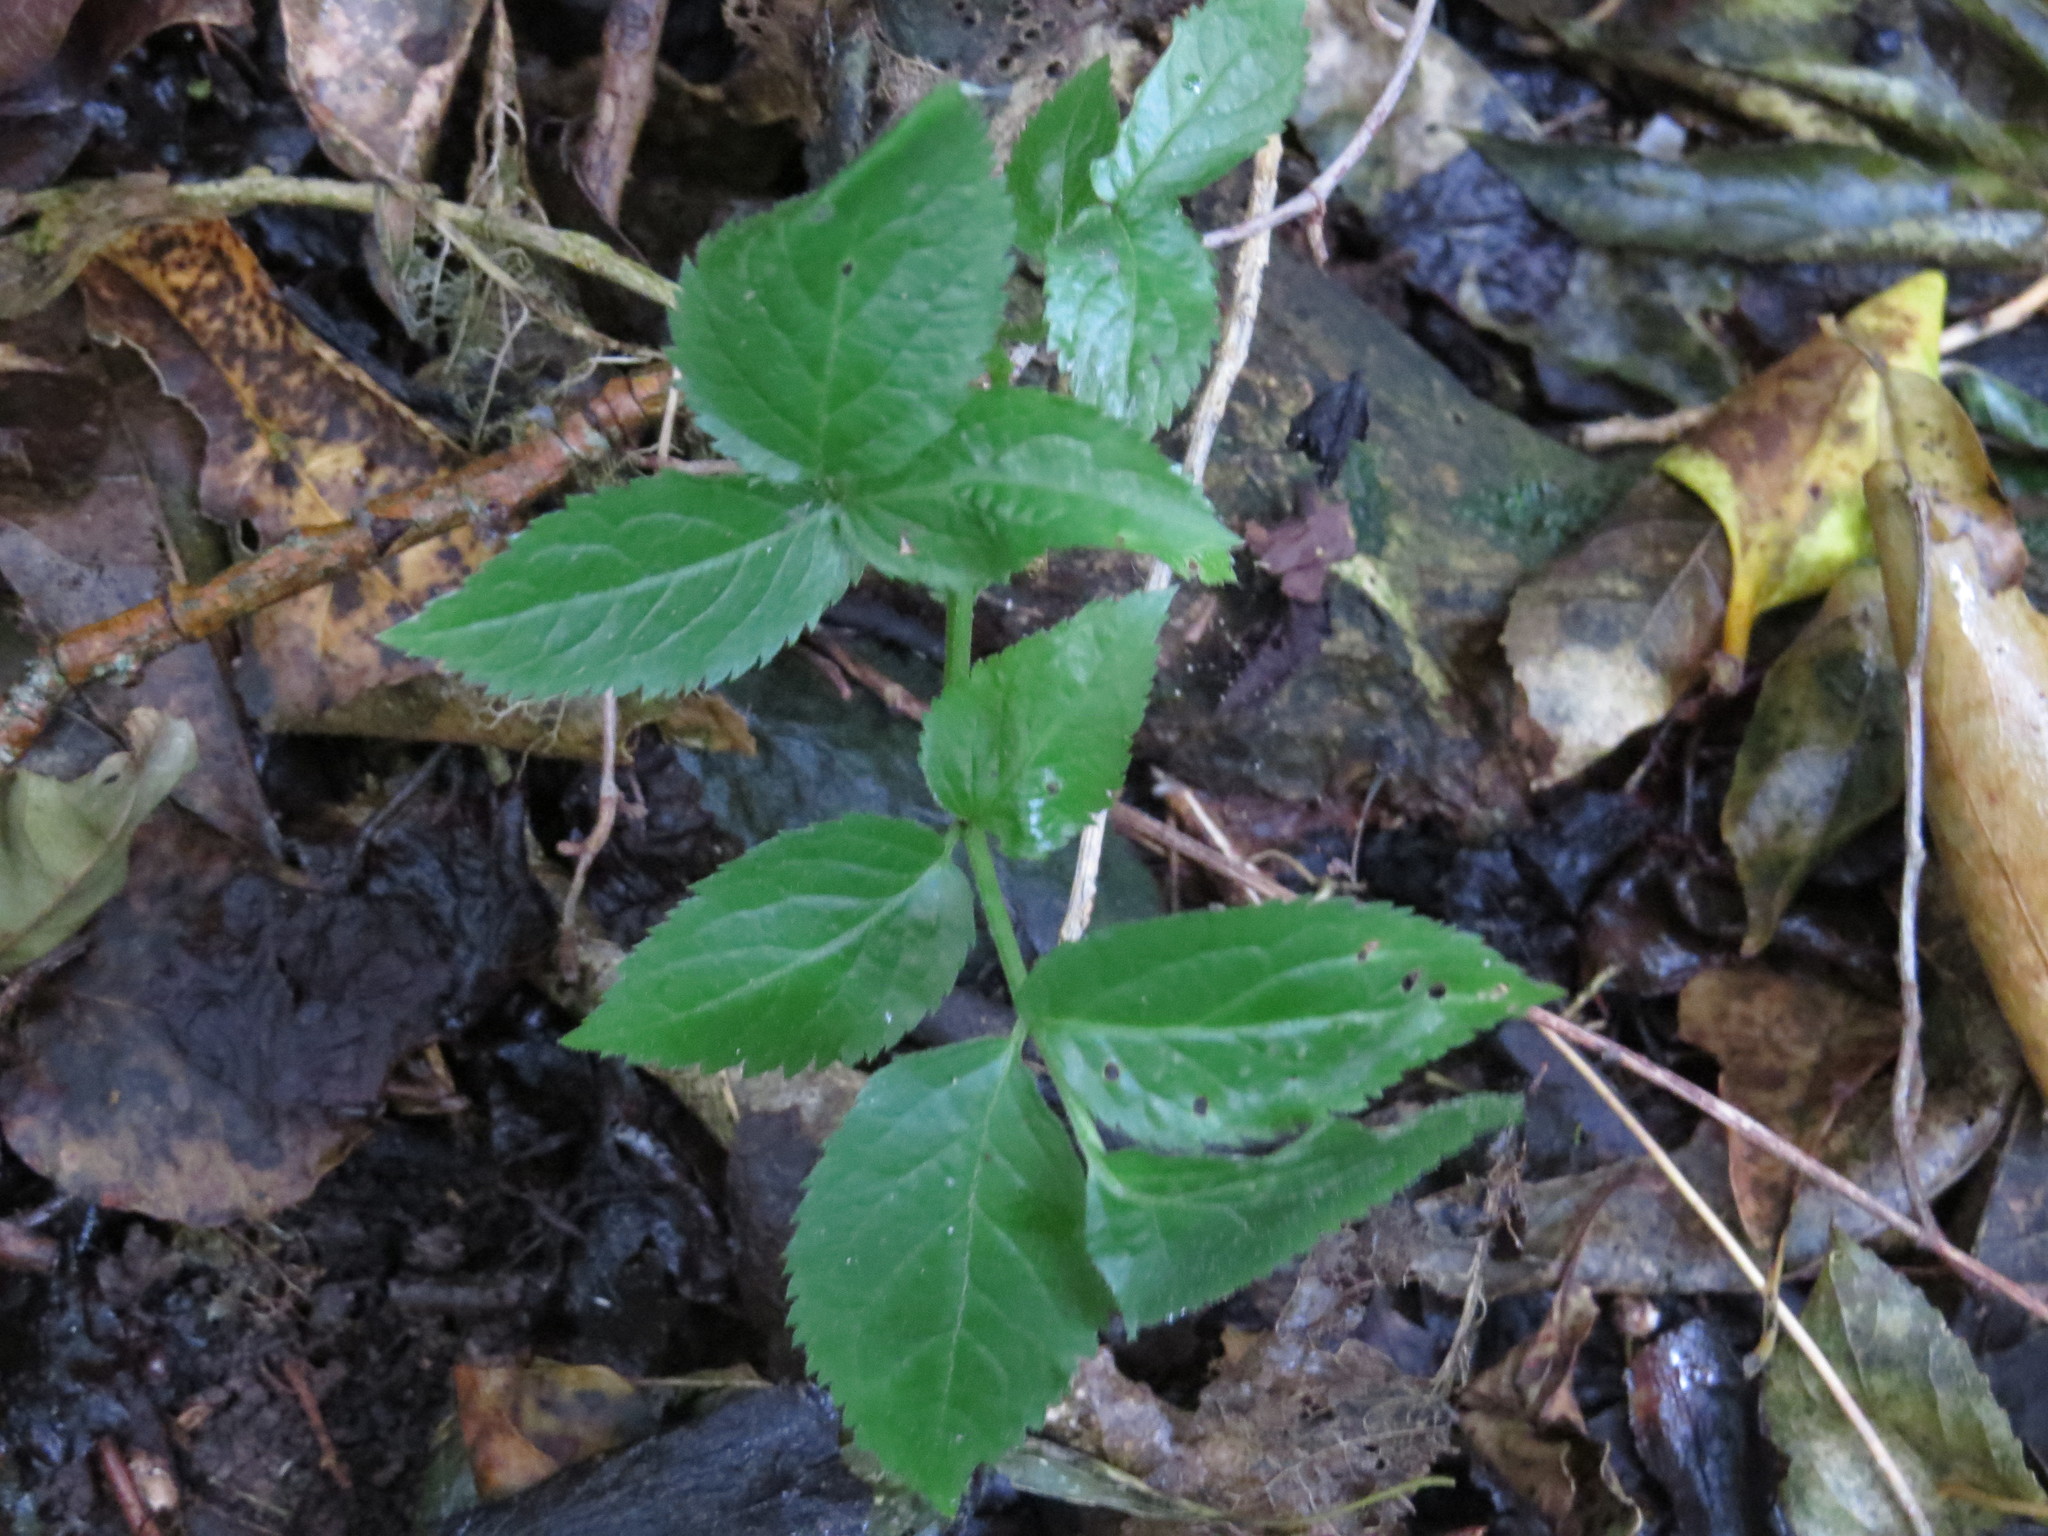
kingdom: Plantae
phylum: Tracheophyta
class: Magnoliopsida
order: Dipsacales
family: Viburnaceae
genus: Sambucus
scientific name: Sambucus nigra
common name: Elder
